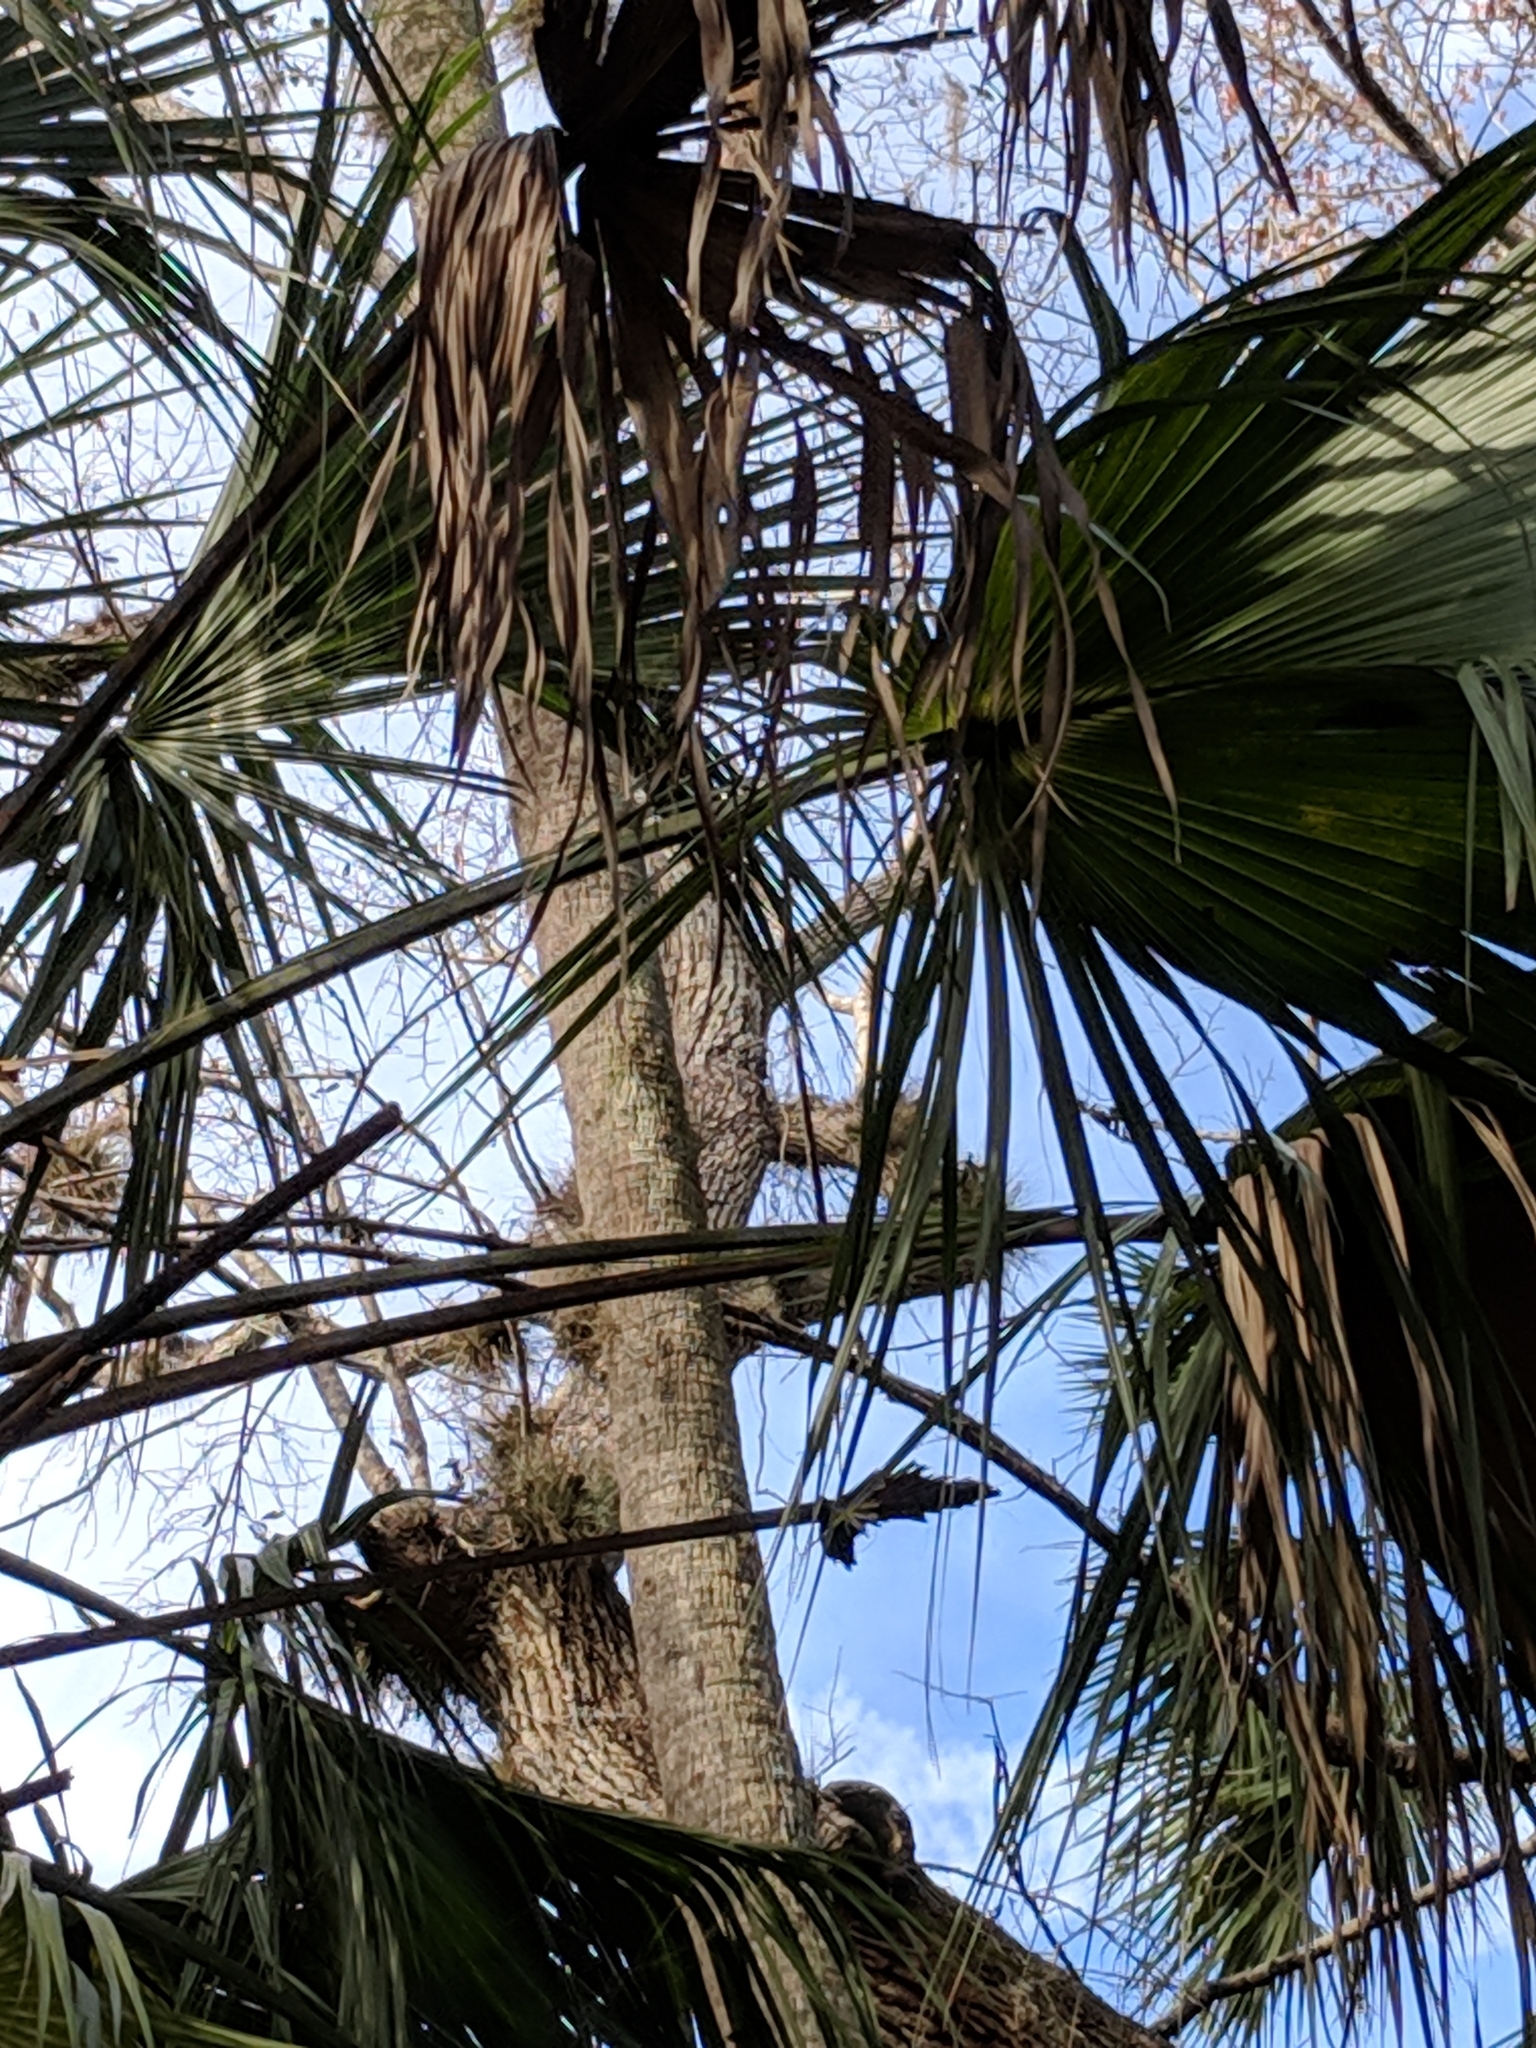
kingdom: Plantae
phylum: Tracheophyta
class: Liliopsida
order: Arecales
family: Arecaceae
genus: Sabal
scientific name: Sabal palmetto
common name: Blue palmetto
